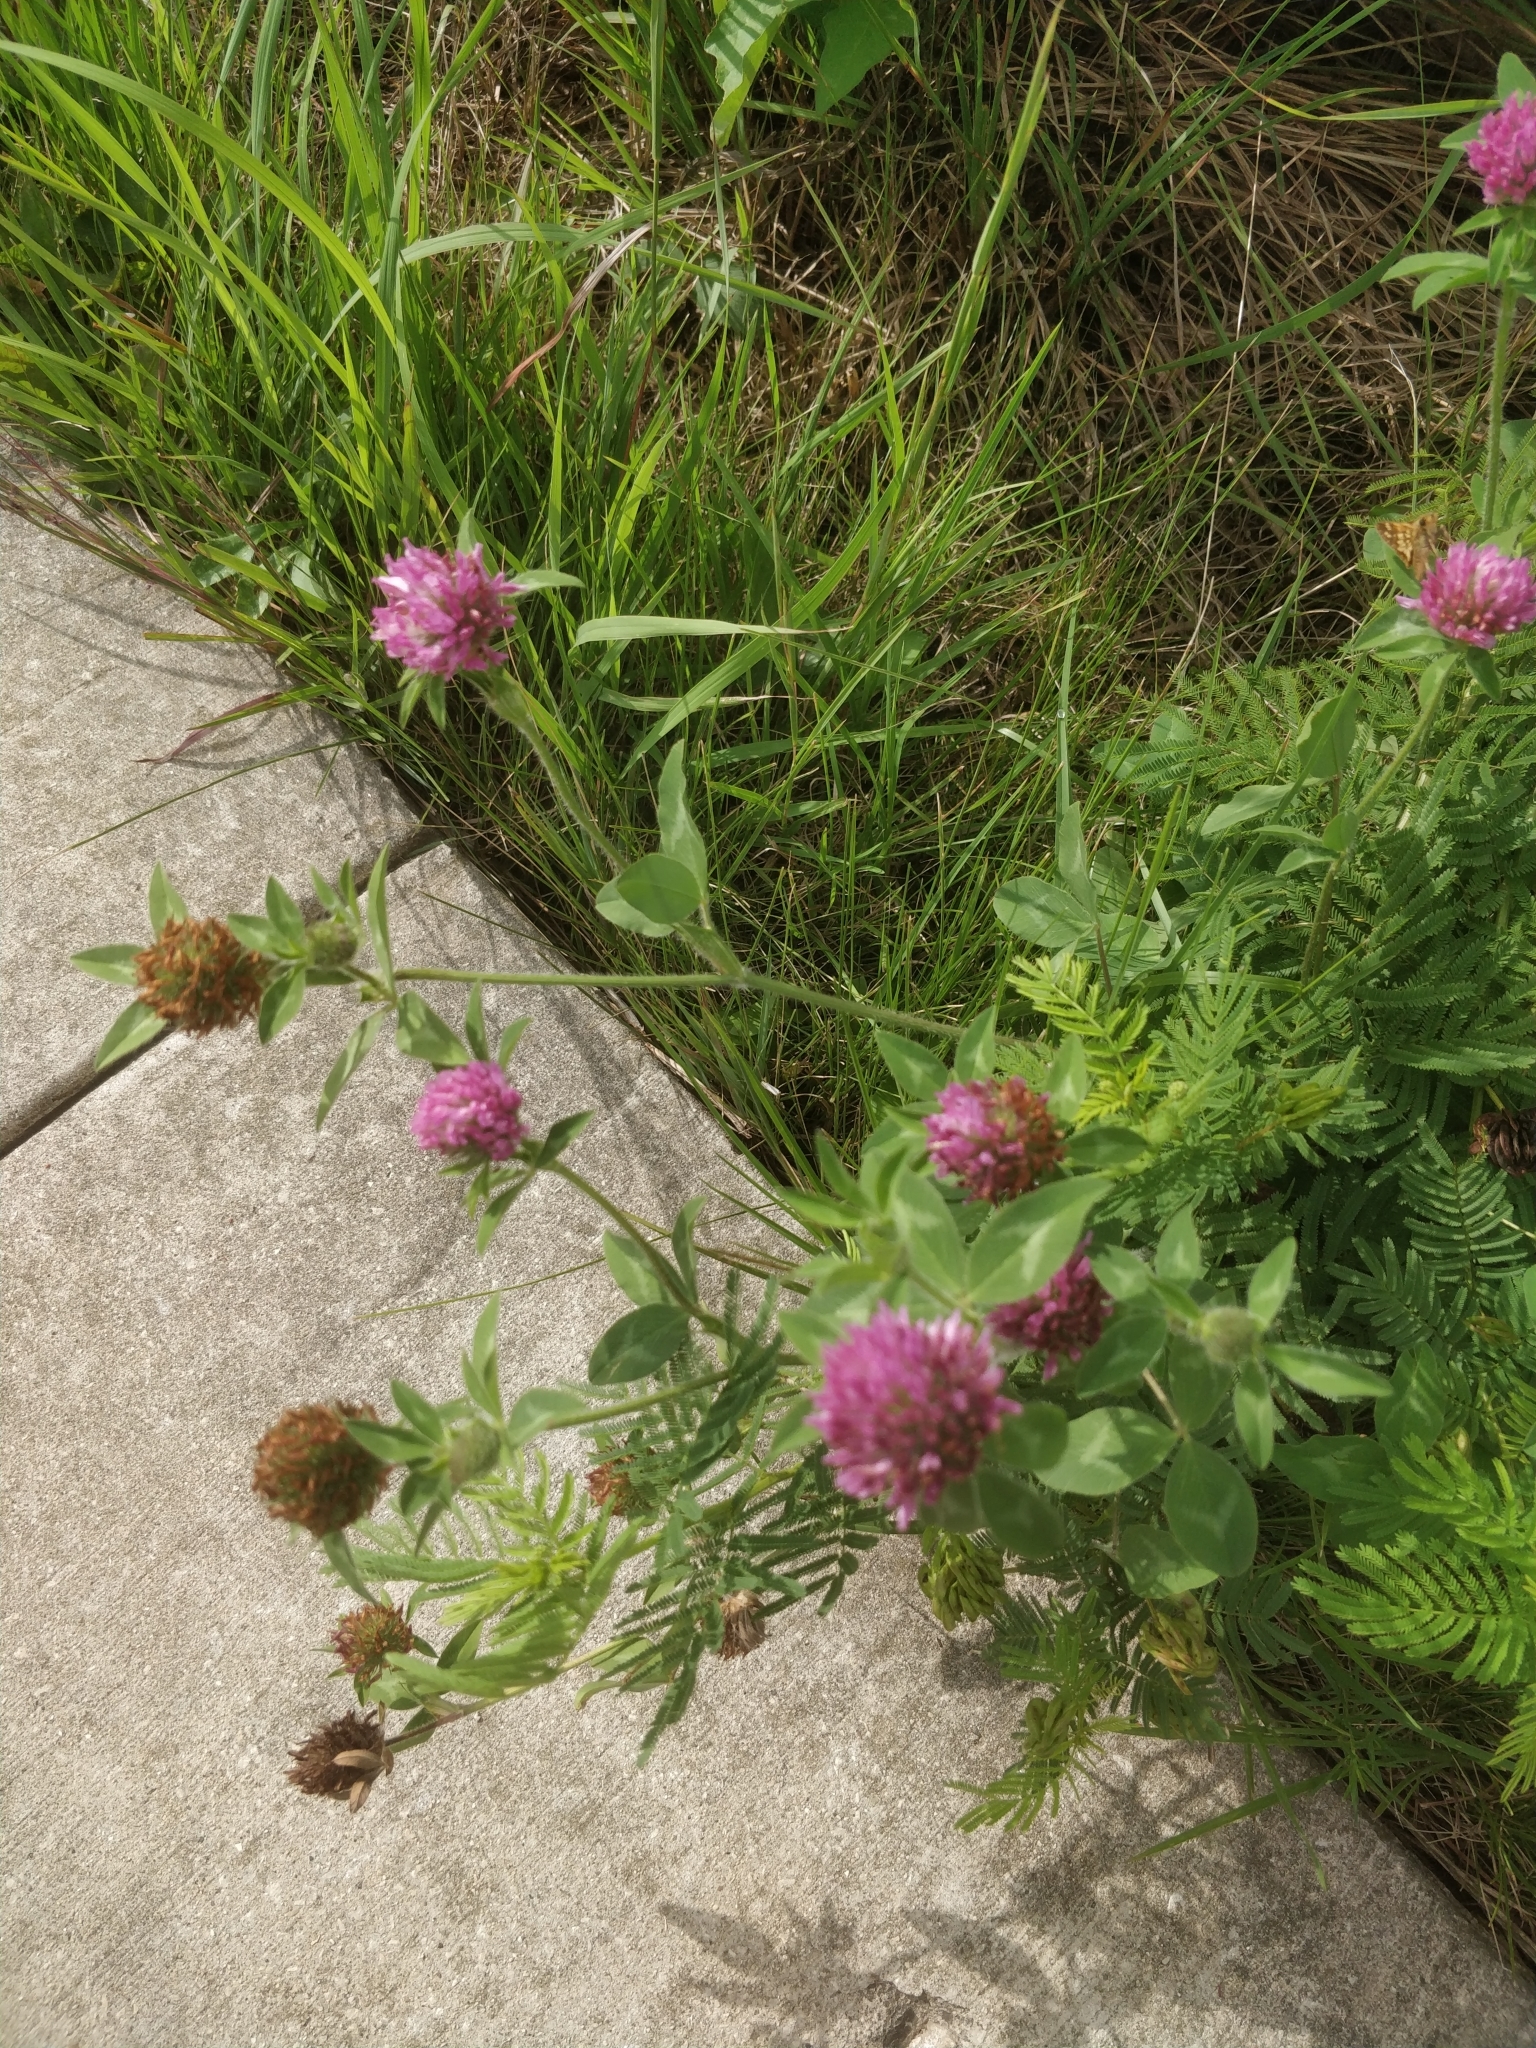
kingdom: Plantae
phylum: Tracheophyta
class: Magnoliopsida
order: Fabales
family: Fabaceae
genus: Trifolium
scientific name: Trifolium pratense
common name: Red clover
